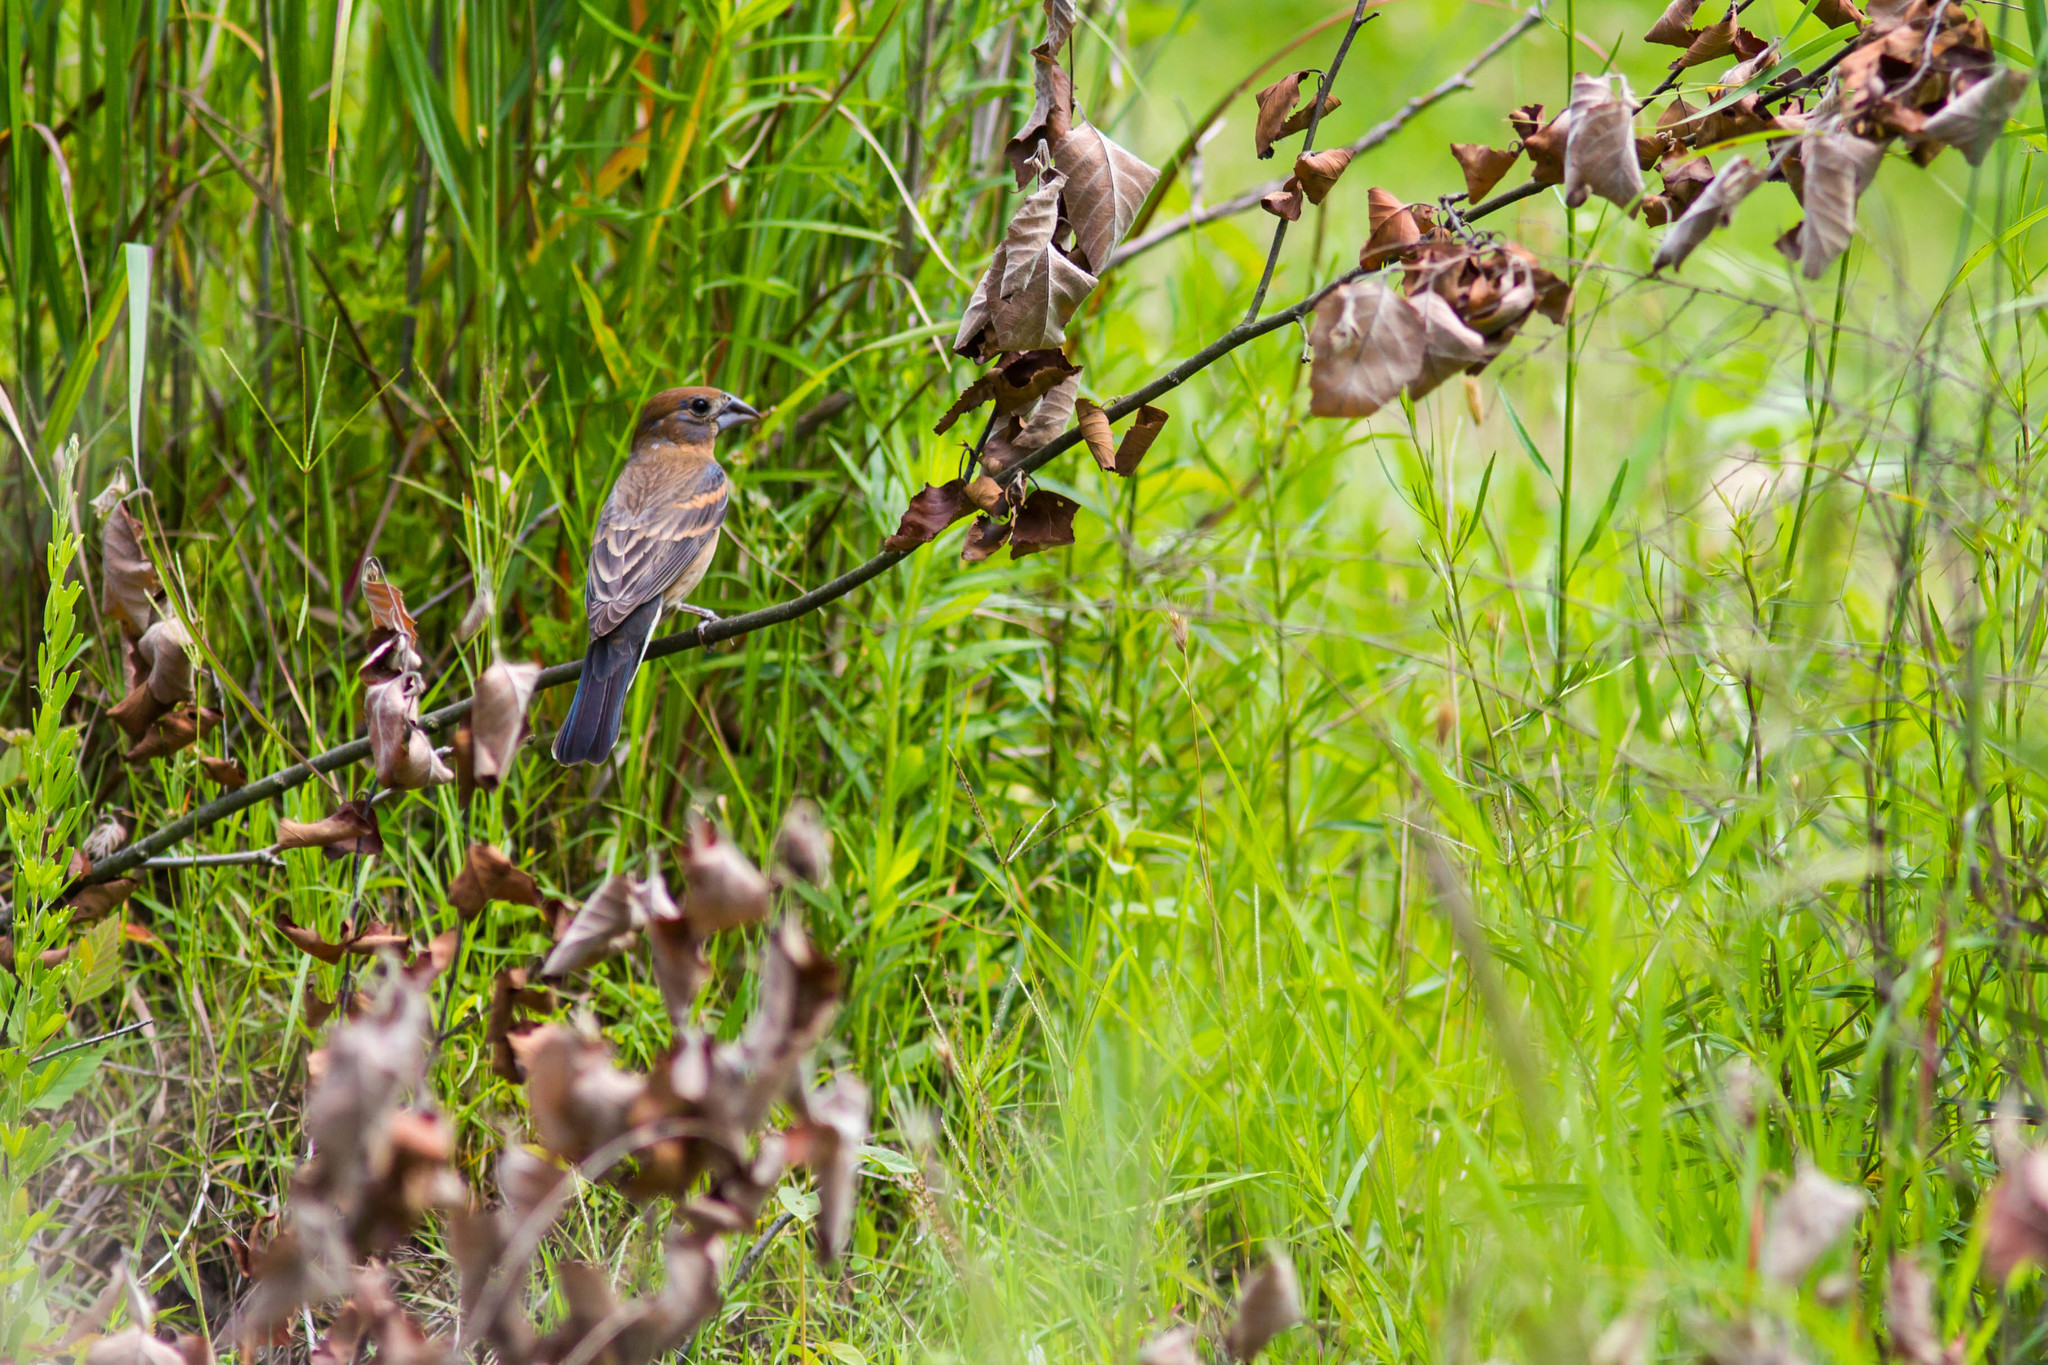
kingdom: Animalia
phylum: Chordata
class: Aves
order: Passeriformes
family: Cardinalidae
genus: Passerina
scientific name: Passerina caerulea
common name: Blue grosbeak
